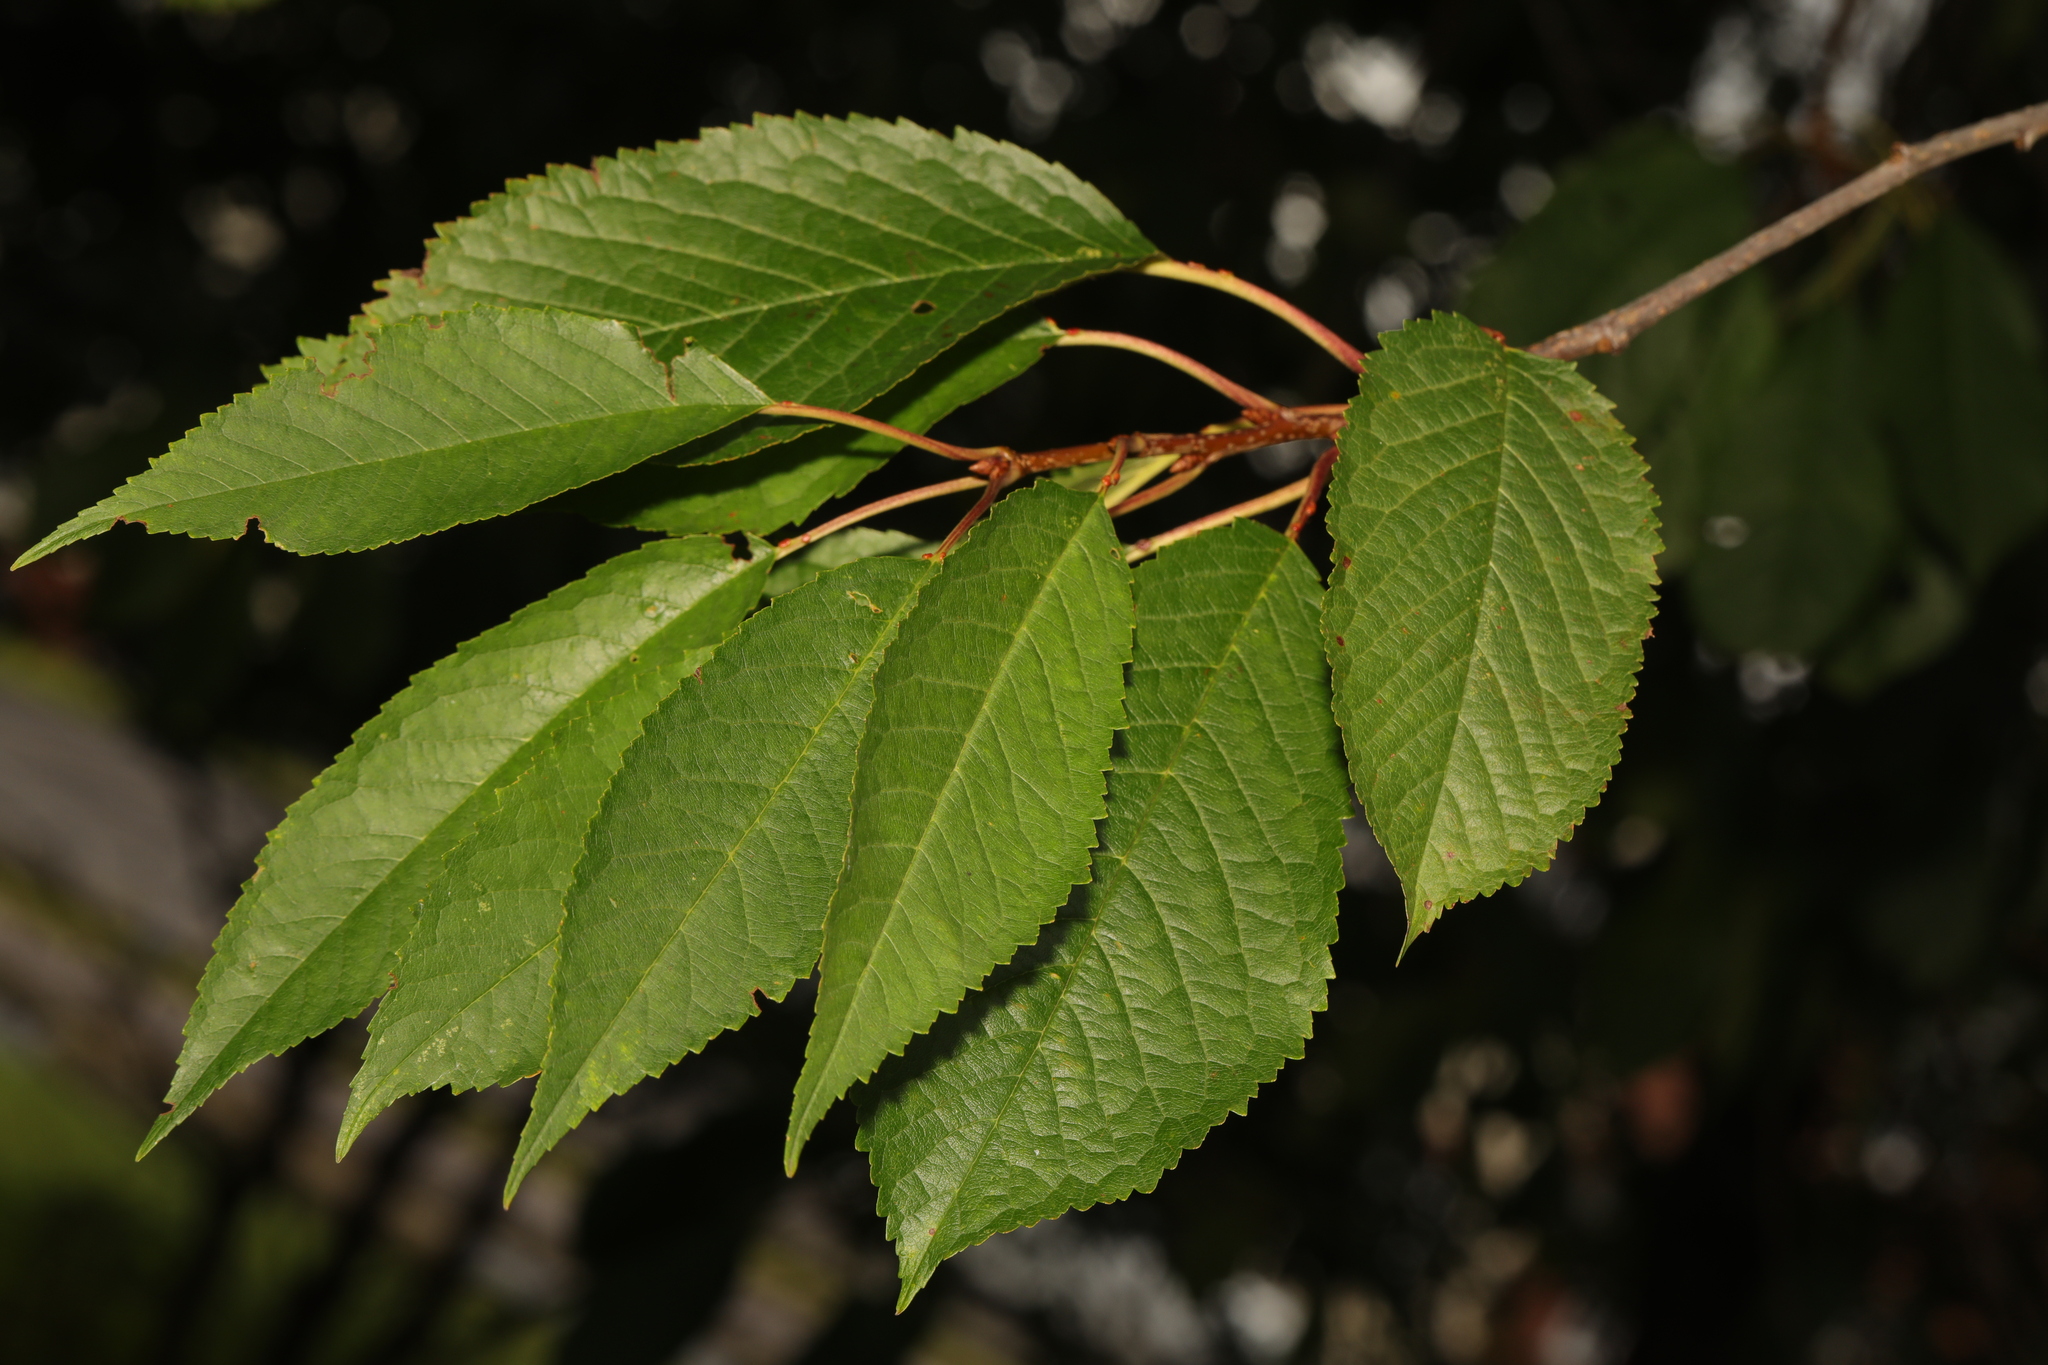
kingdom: Plantae
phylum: Tracheophyta
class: Magnoliopsida
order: Rosales
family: Rosaceae
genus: Prunus
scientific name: Prunus avium
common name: Sweet cherry
